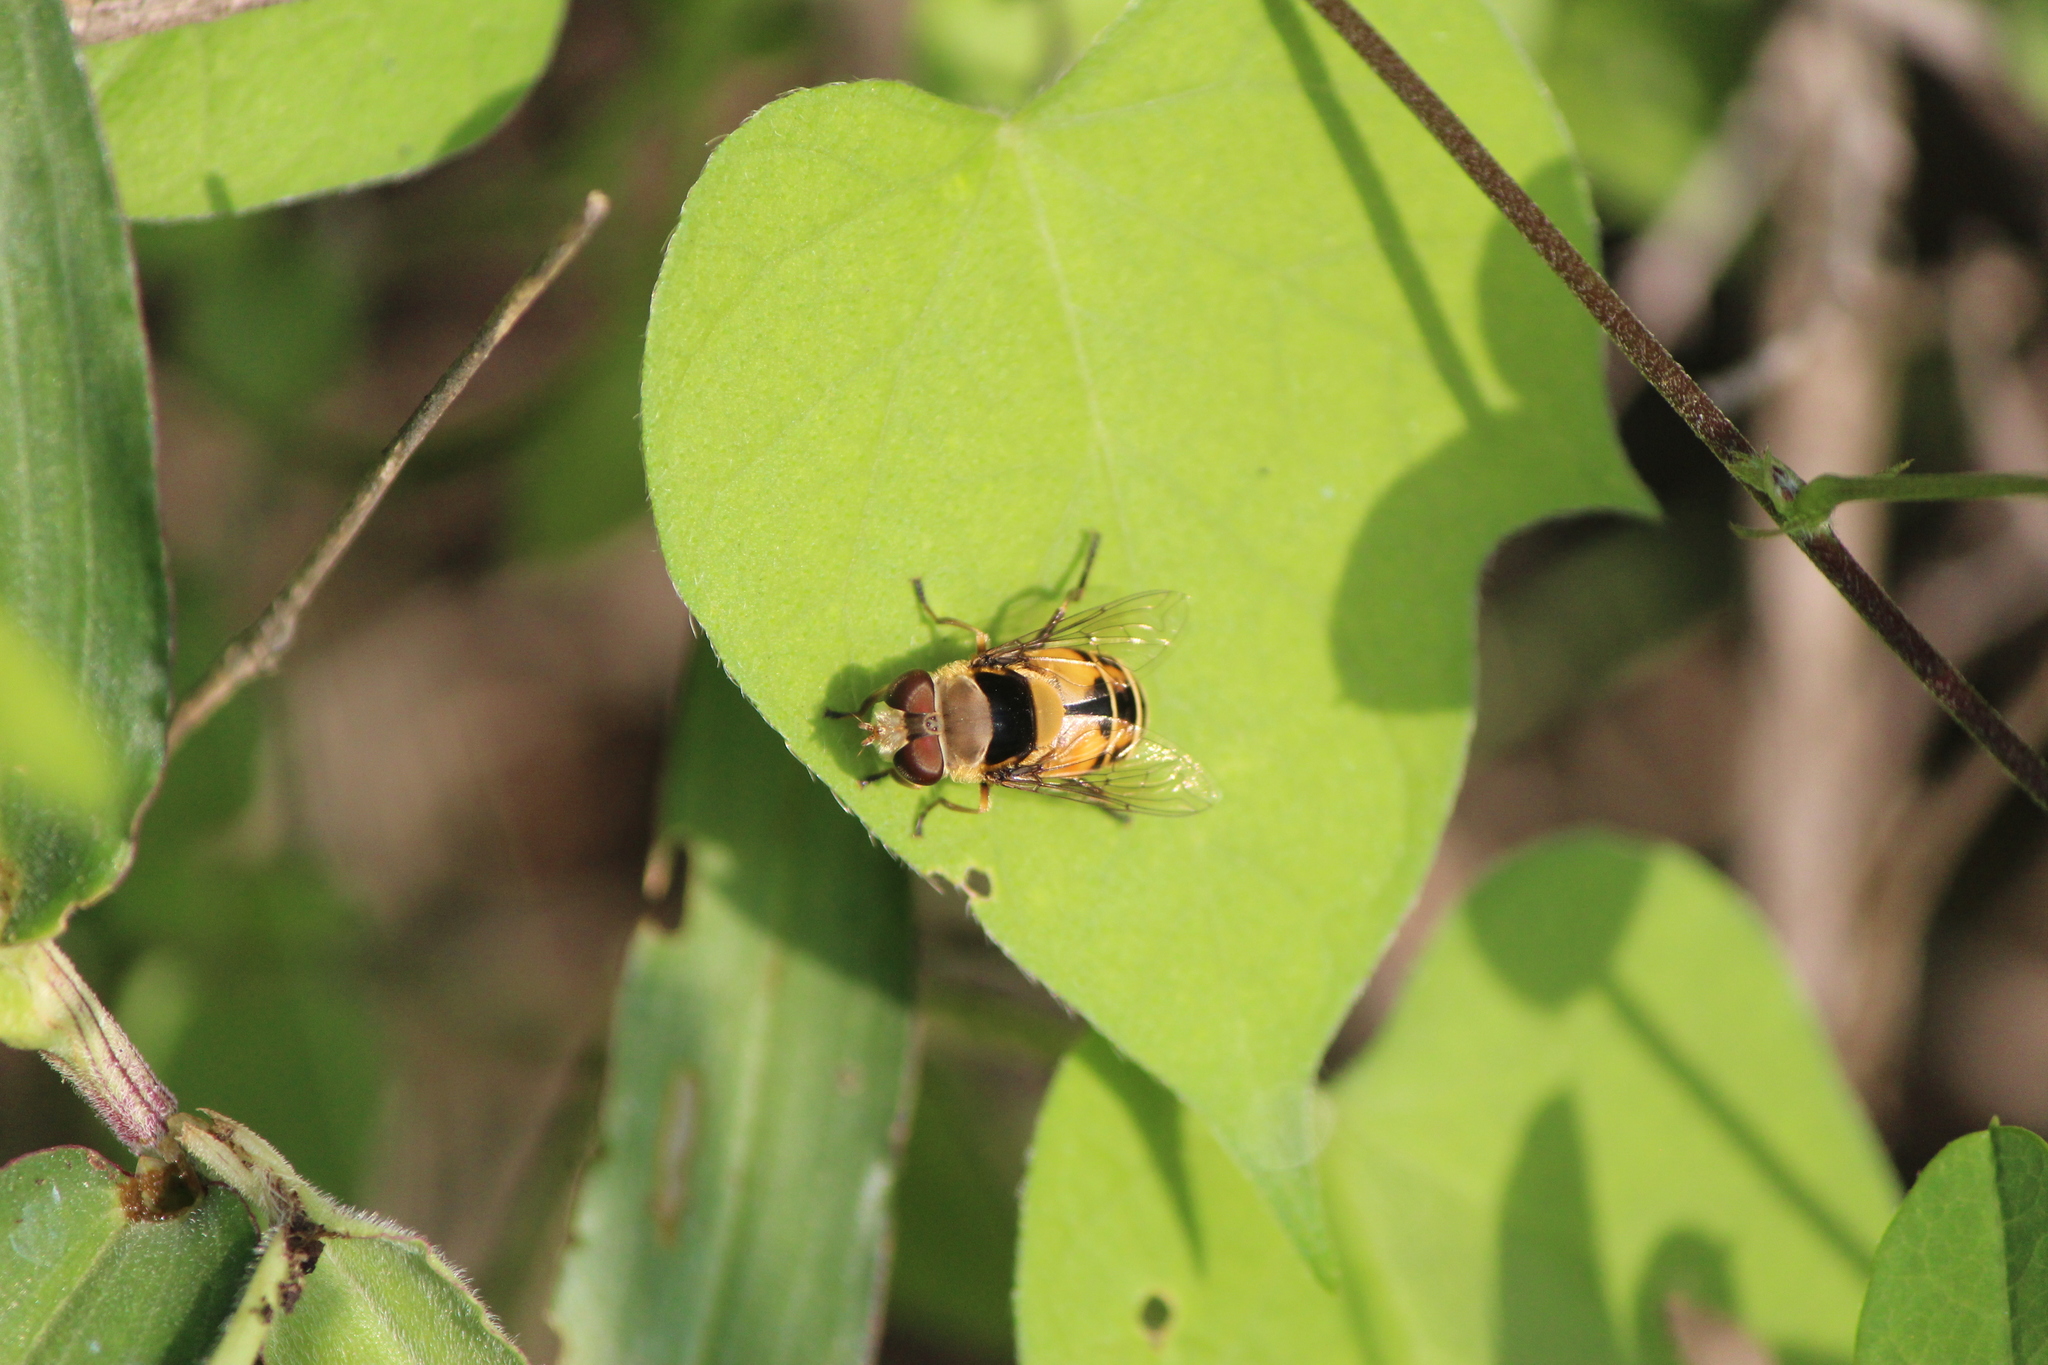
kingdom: Animalia
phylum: Arthropoda
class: Insecta
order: Diptera
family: Syrphidae
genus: Palpada
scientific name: Palpada pusilla
